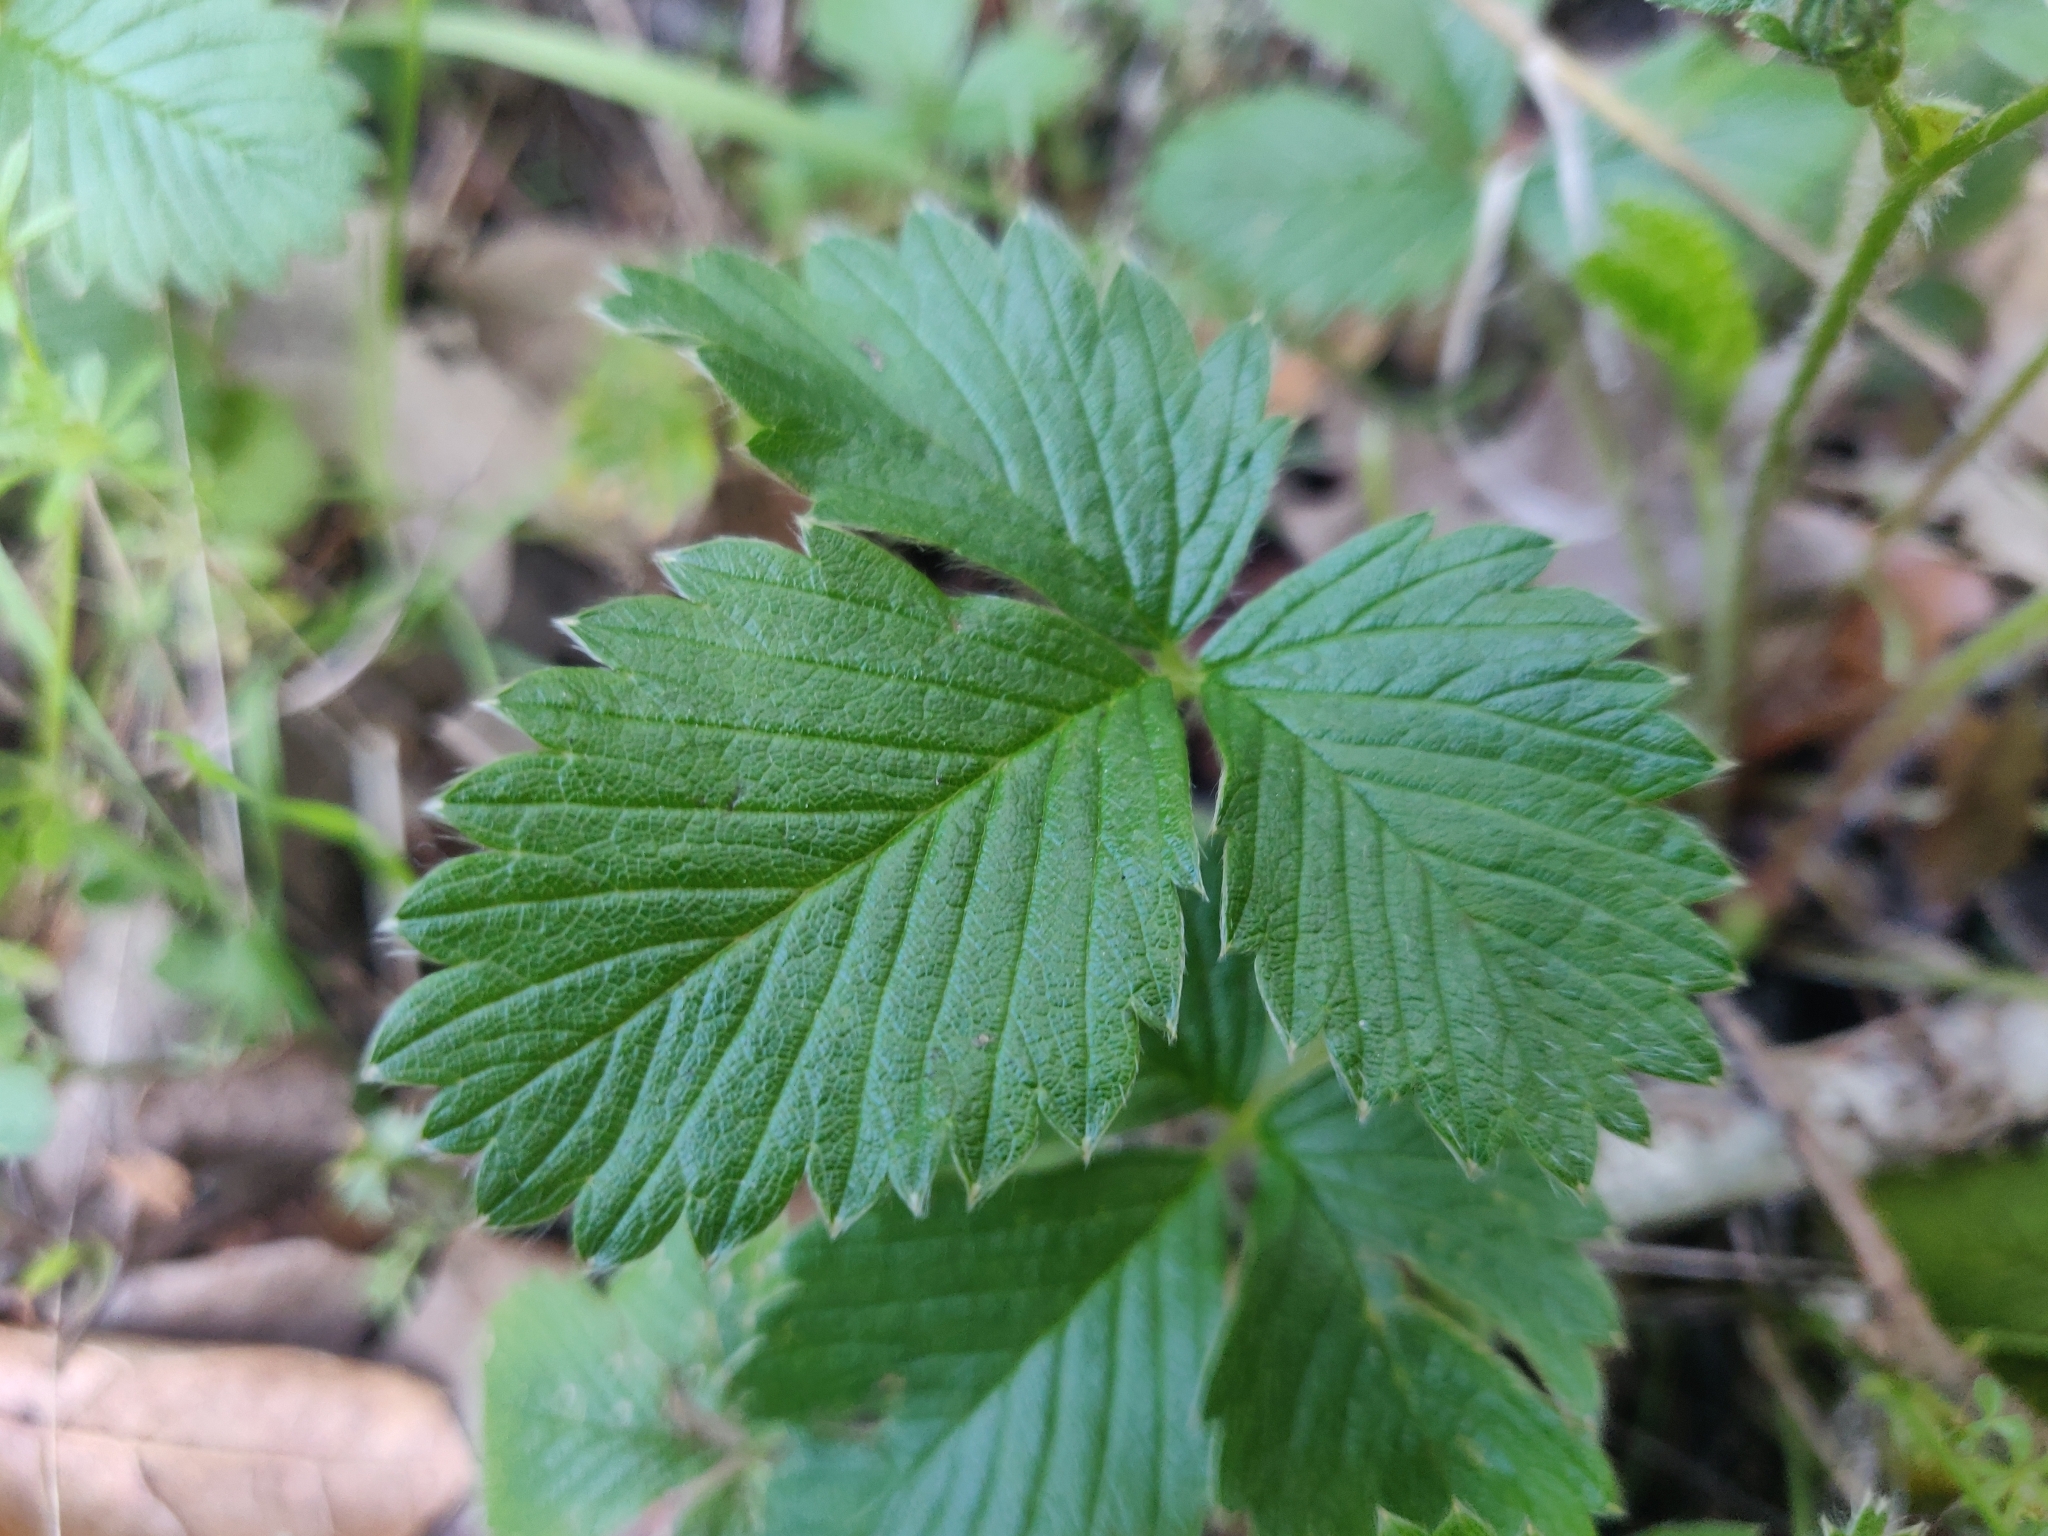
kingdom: Plantae
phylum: Tracheophyta
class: Magnoliopsida
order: Rosales
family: Rosaceae
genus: Fragaria
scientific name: Fragaria vesca
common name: Wild strawberry
